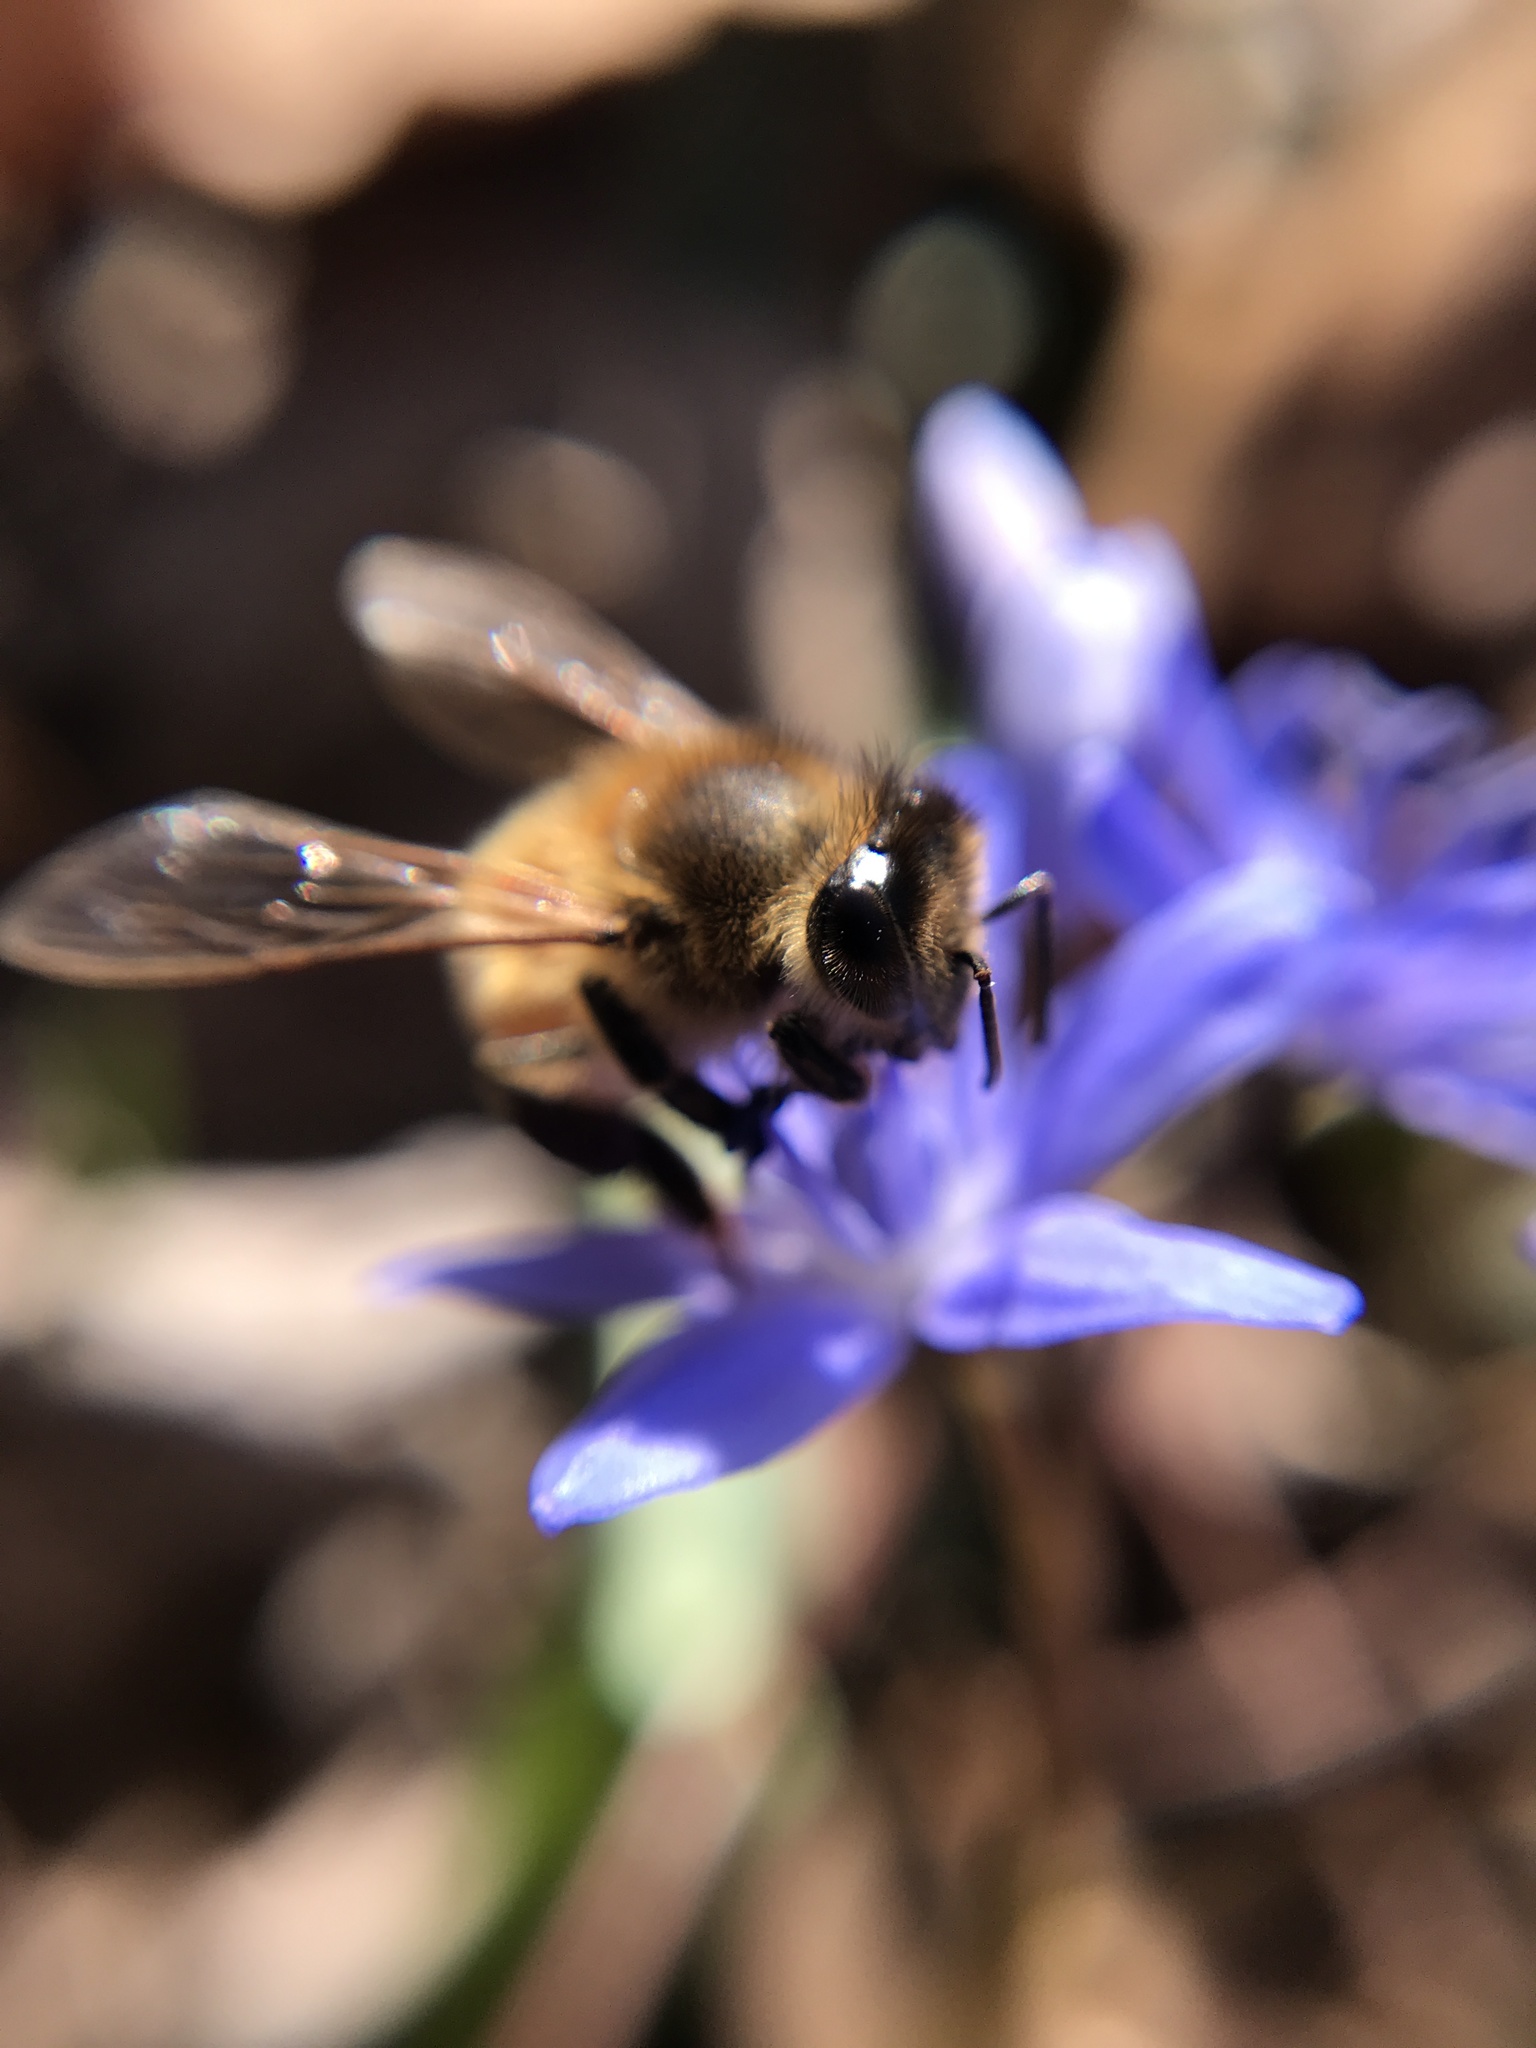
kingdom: Animalia
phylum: Arthropoda
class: Insecta
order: Hymenoptera
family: Apidae
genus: Apis
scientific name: Apis mellifera
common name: Honey bee
